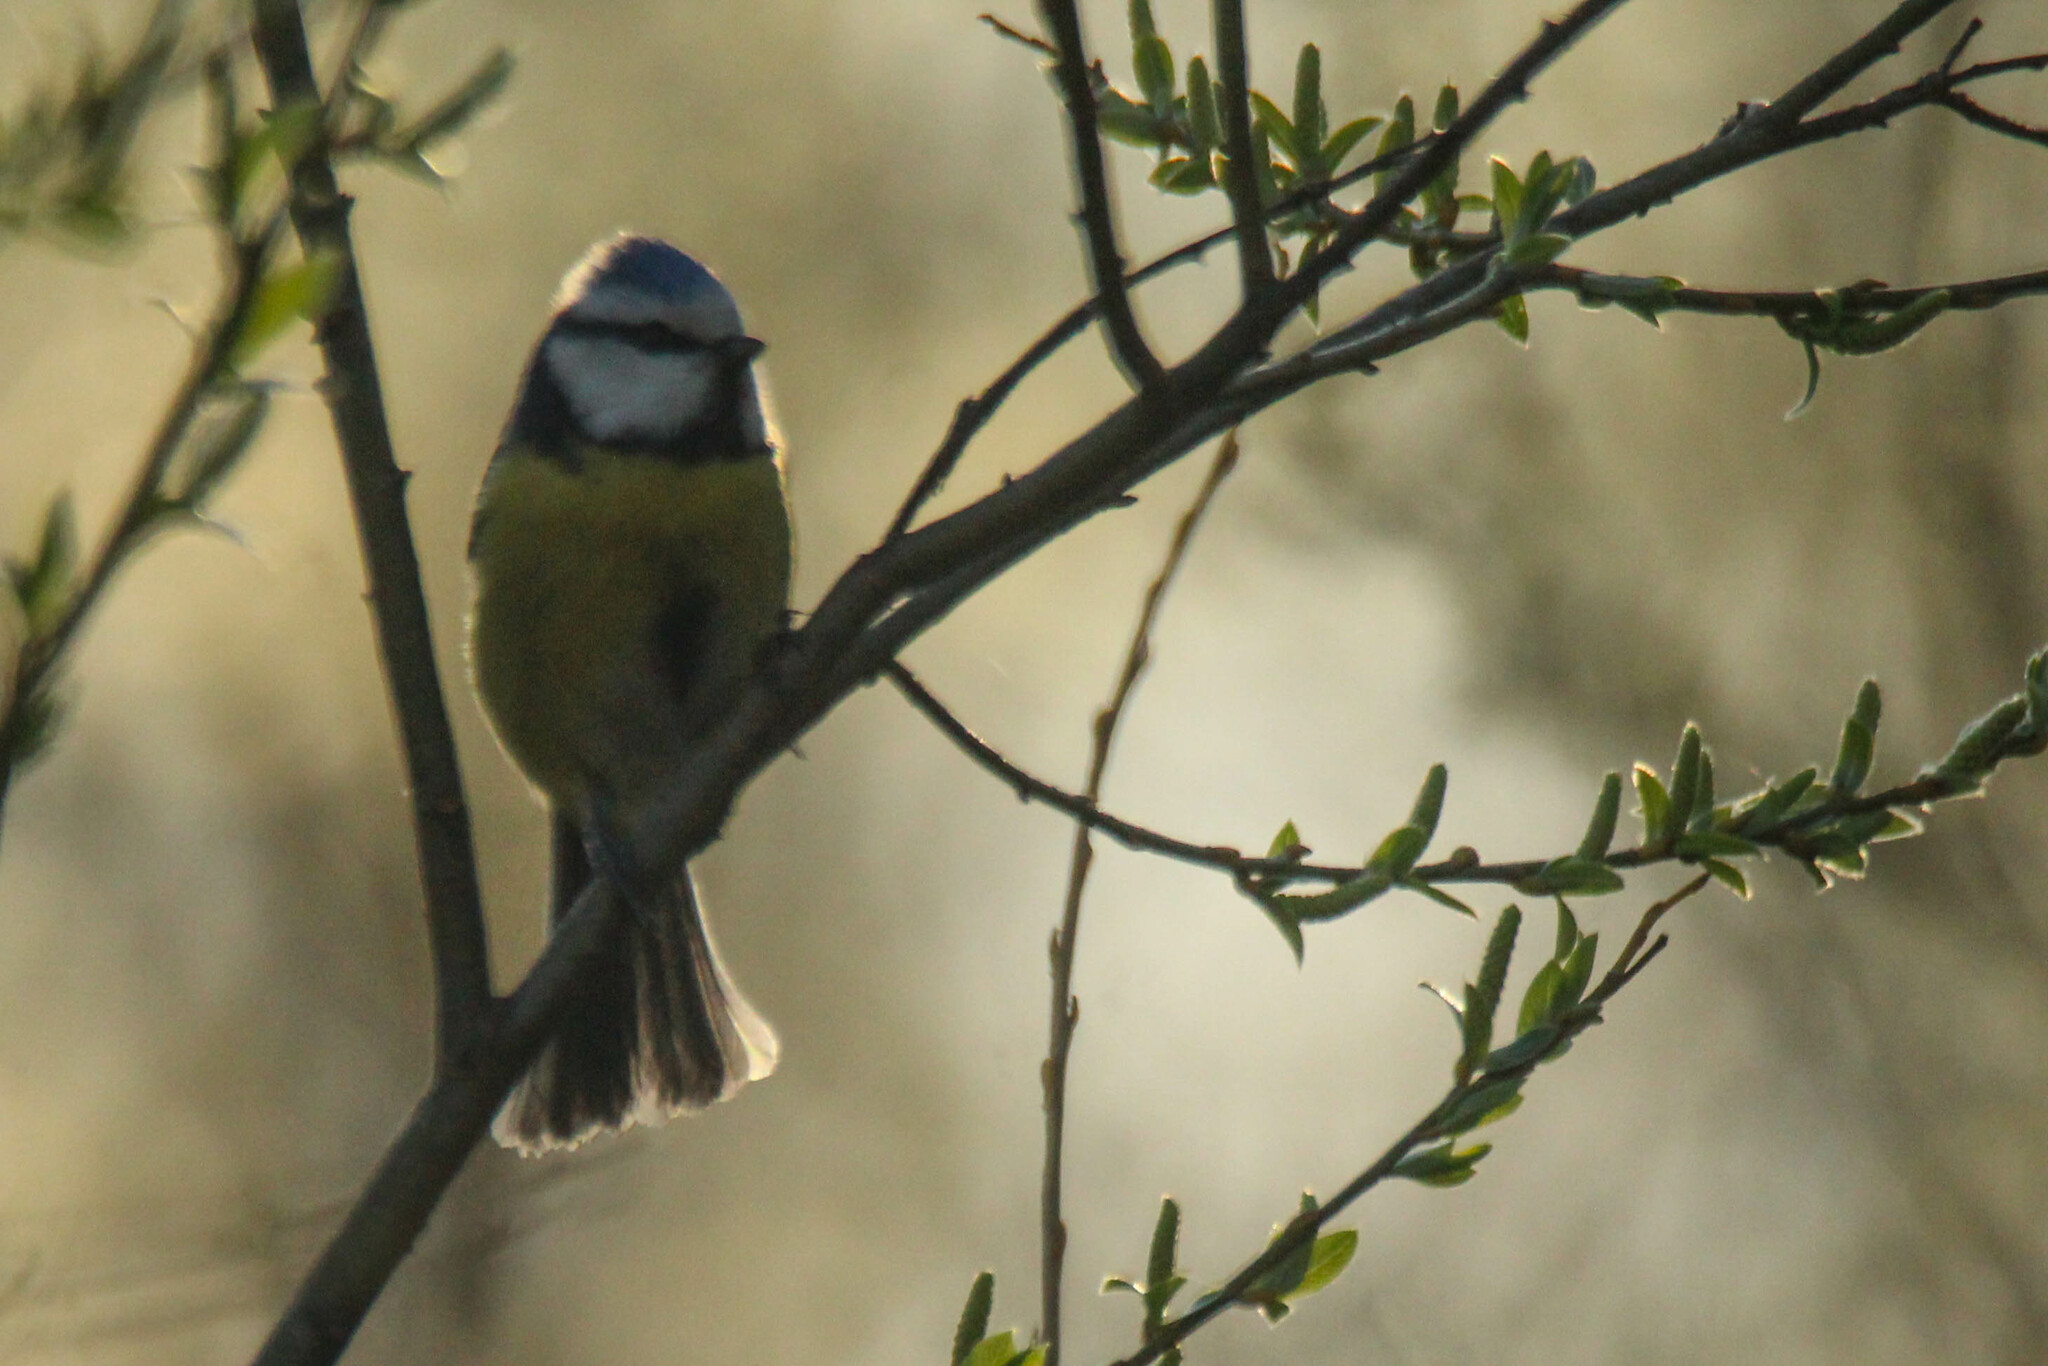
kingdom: Animalia
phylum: Chordata
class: Aves
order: Passeriformes
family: Paridae
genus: Cyanistes
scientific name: Cyanistes caeruleus
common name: Eurasian blue tit
